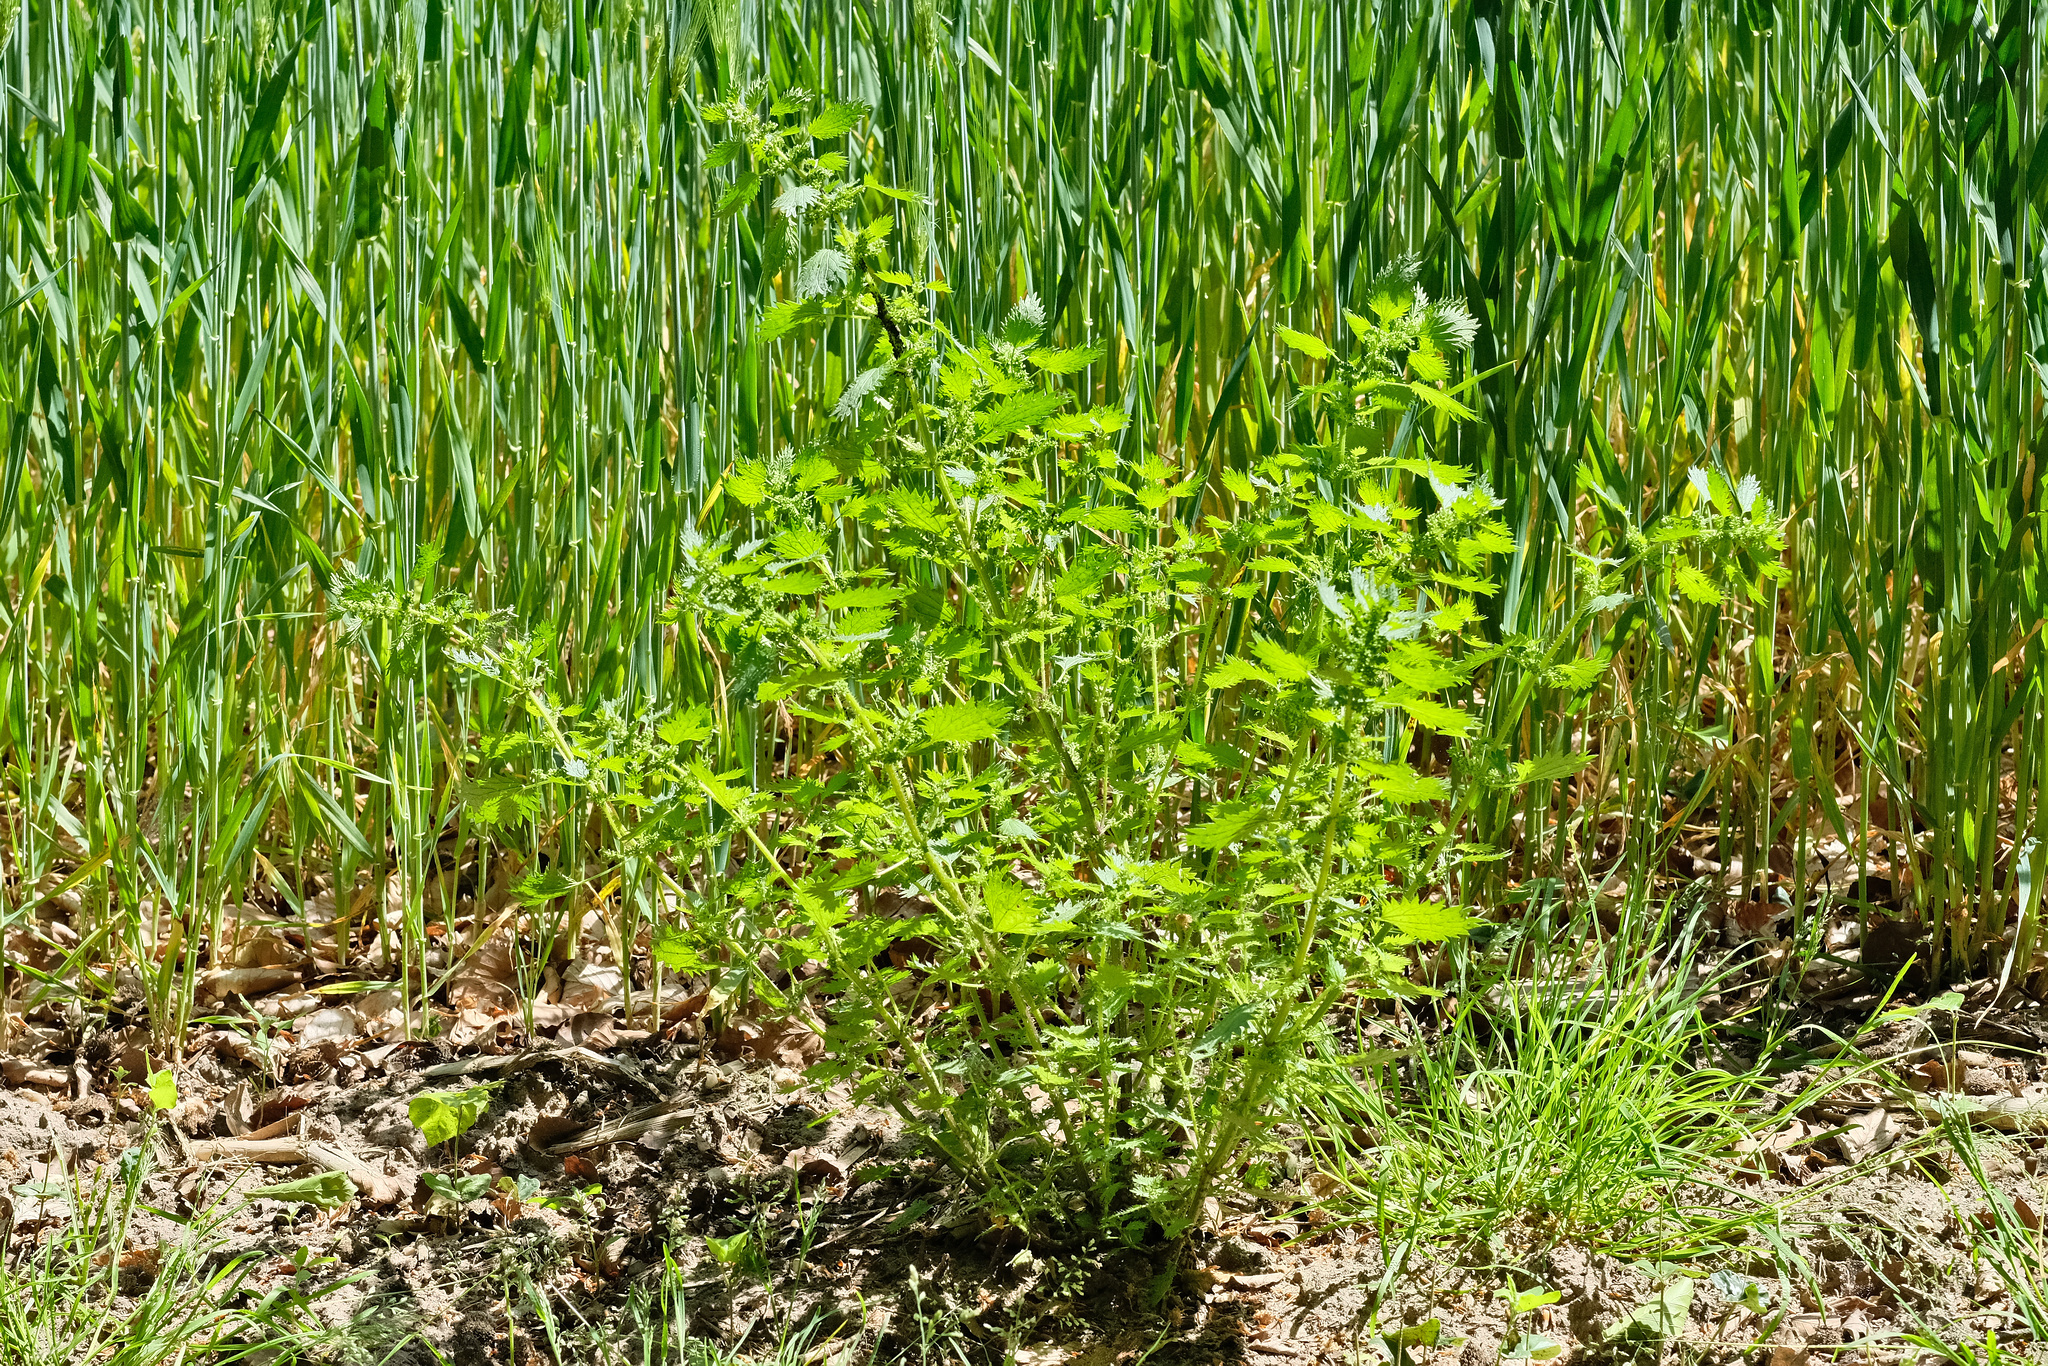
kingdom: Plantae
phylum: Tracheophyta
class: Magnoliopsida
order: Rosales
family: Urticaceae
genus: Urtica
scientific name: Urtica urens
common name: Dwarf nettle
